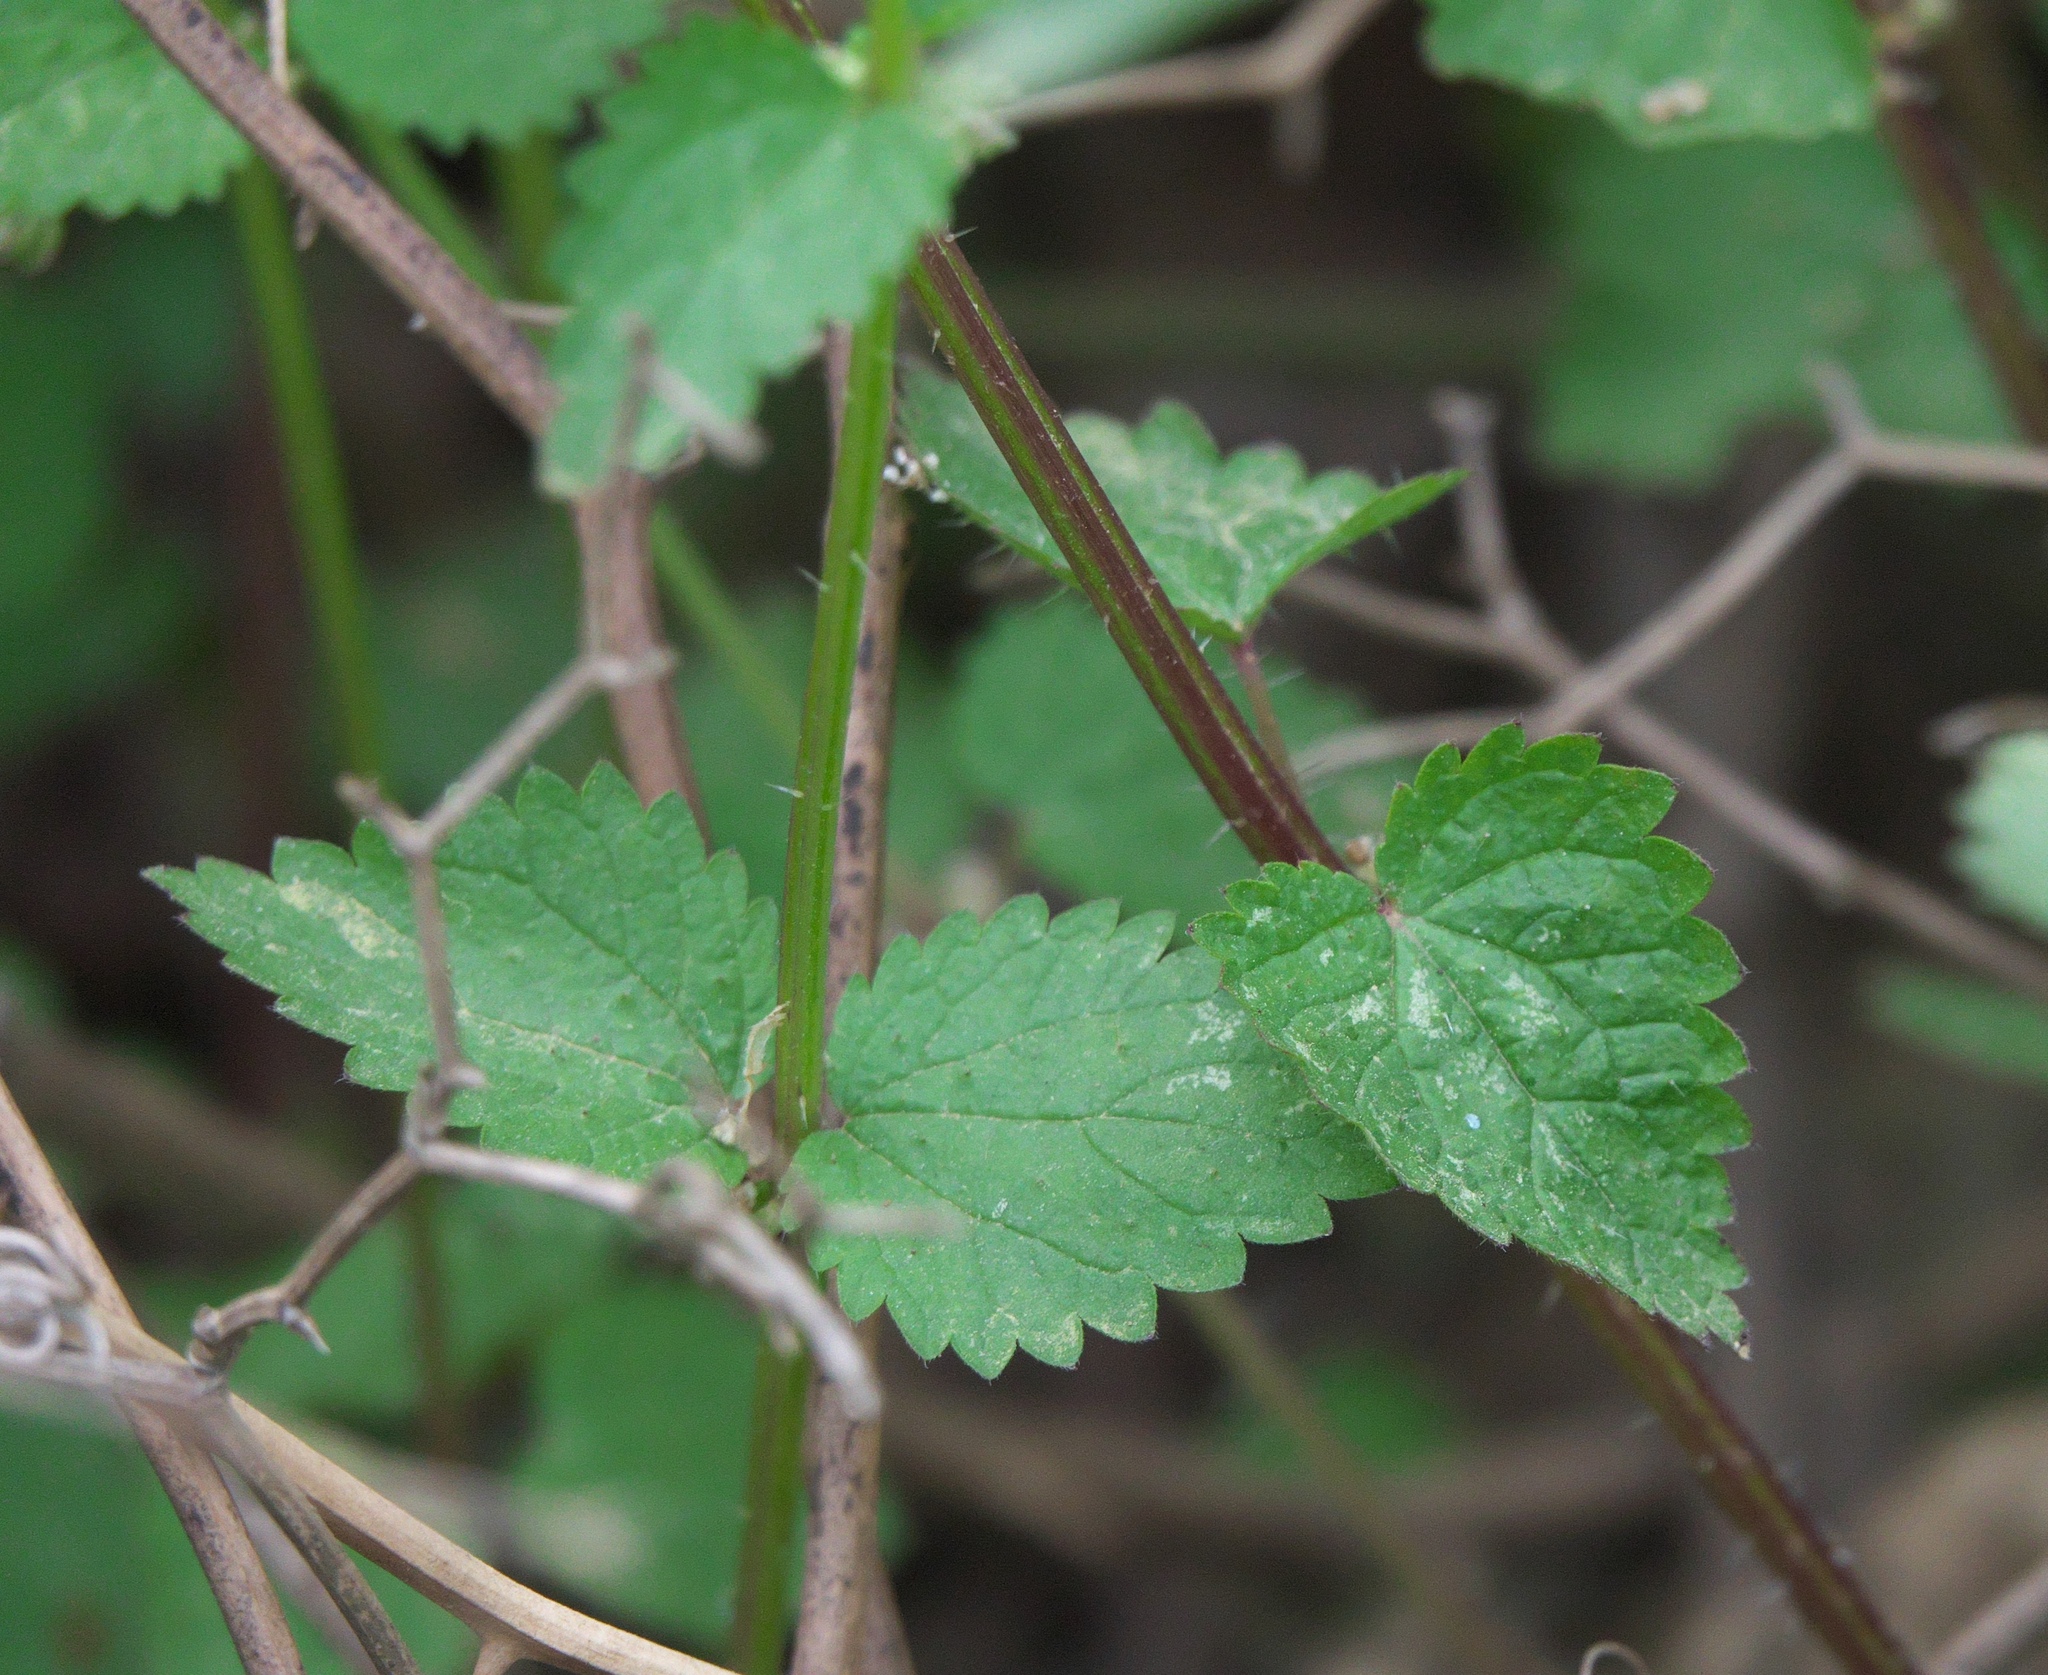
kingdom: Plantae
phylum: Tracheophyta
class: Magnoliopsida
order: Rosales
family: Urticaceae
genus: Urtica
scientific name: Urtica chamaedryoides
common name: Heart-leaf nettle
